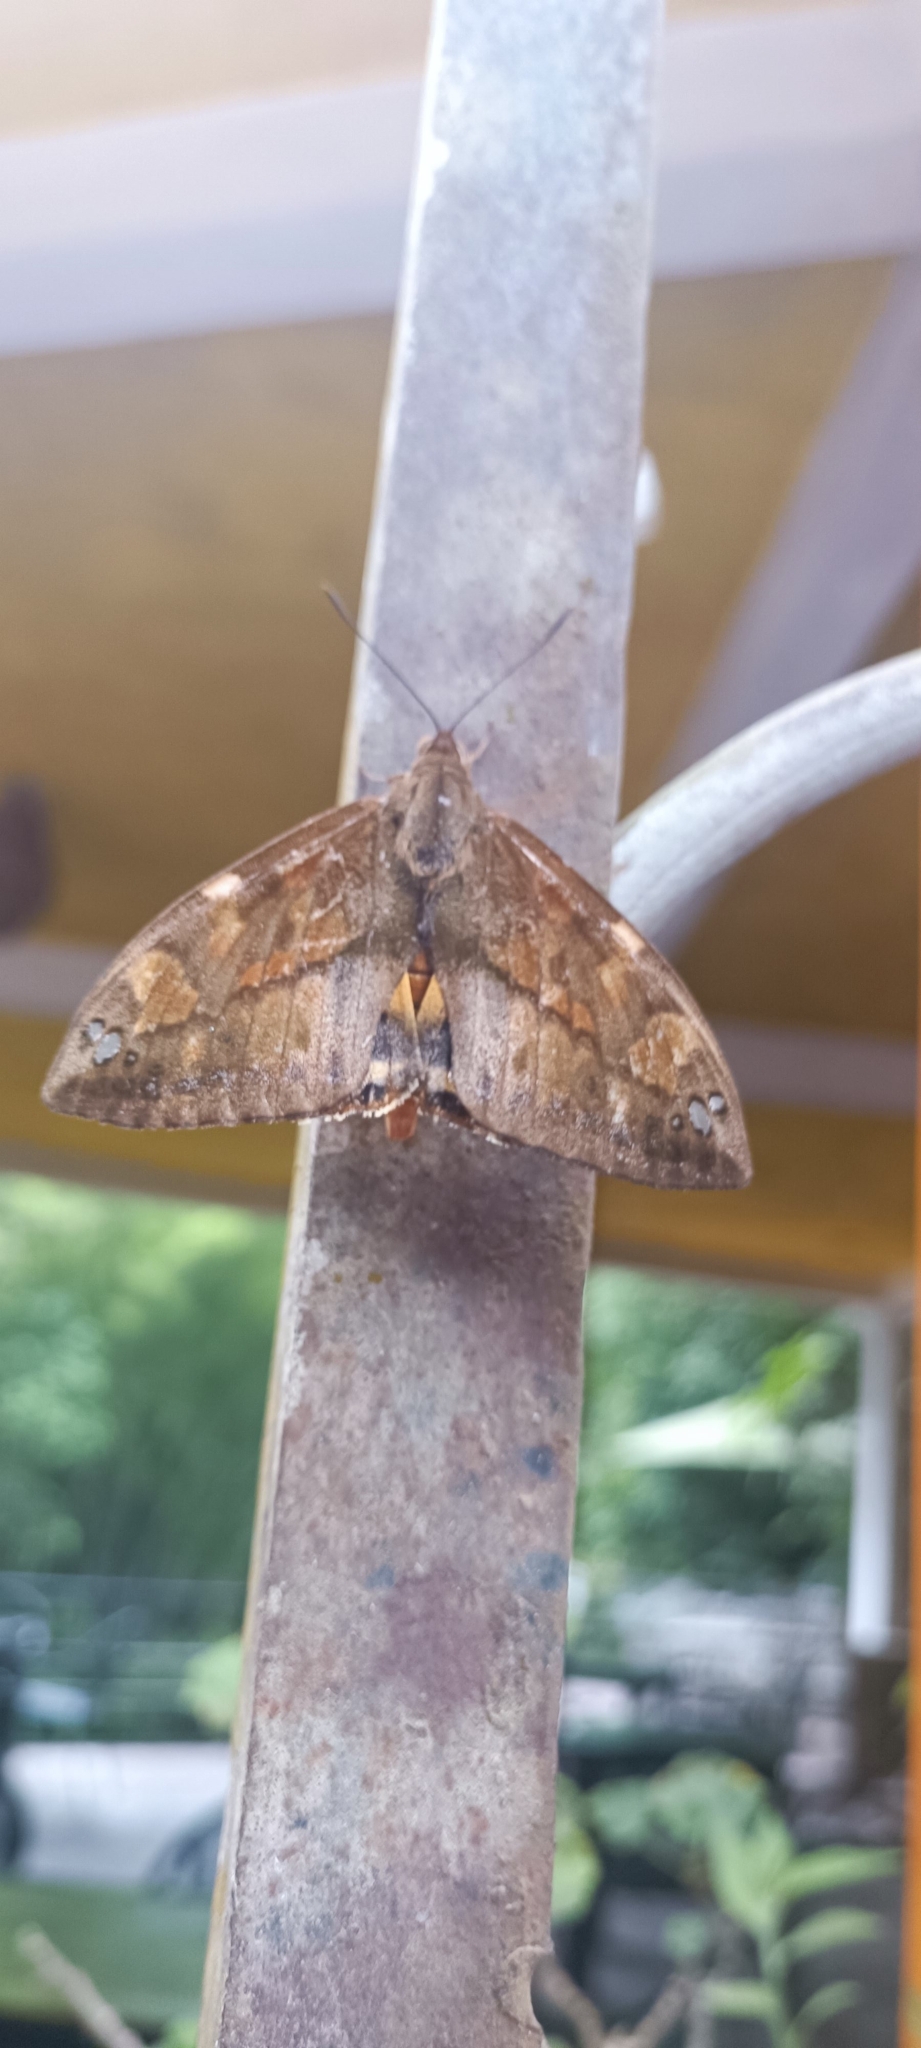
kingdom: Animalia
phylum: Arthropoda
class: Insecta
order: Lepidoptera
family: Castniidae
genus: Athis
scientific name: Athis inca
